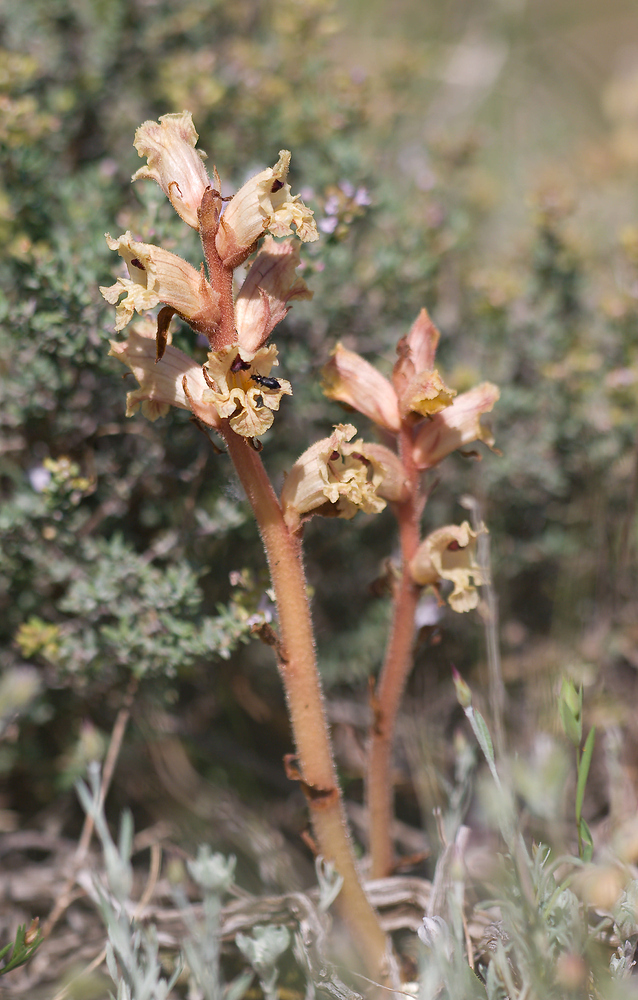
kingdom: Plantae
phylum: Tracheophyta
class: Magnoliopsida
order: Lamiales
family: Orobanchaceae
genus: Orobanche
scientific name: Orobanche alba
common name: Thyme broomrape
